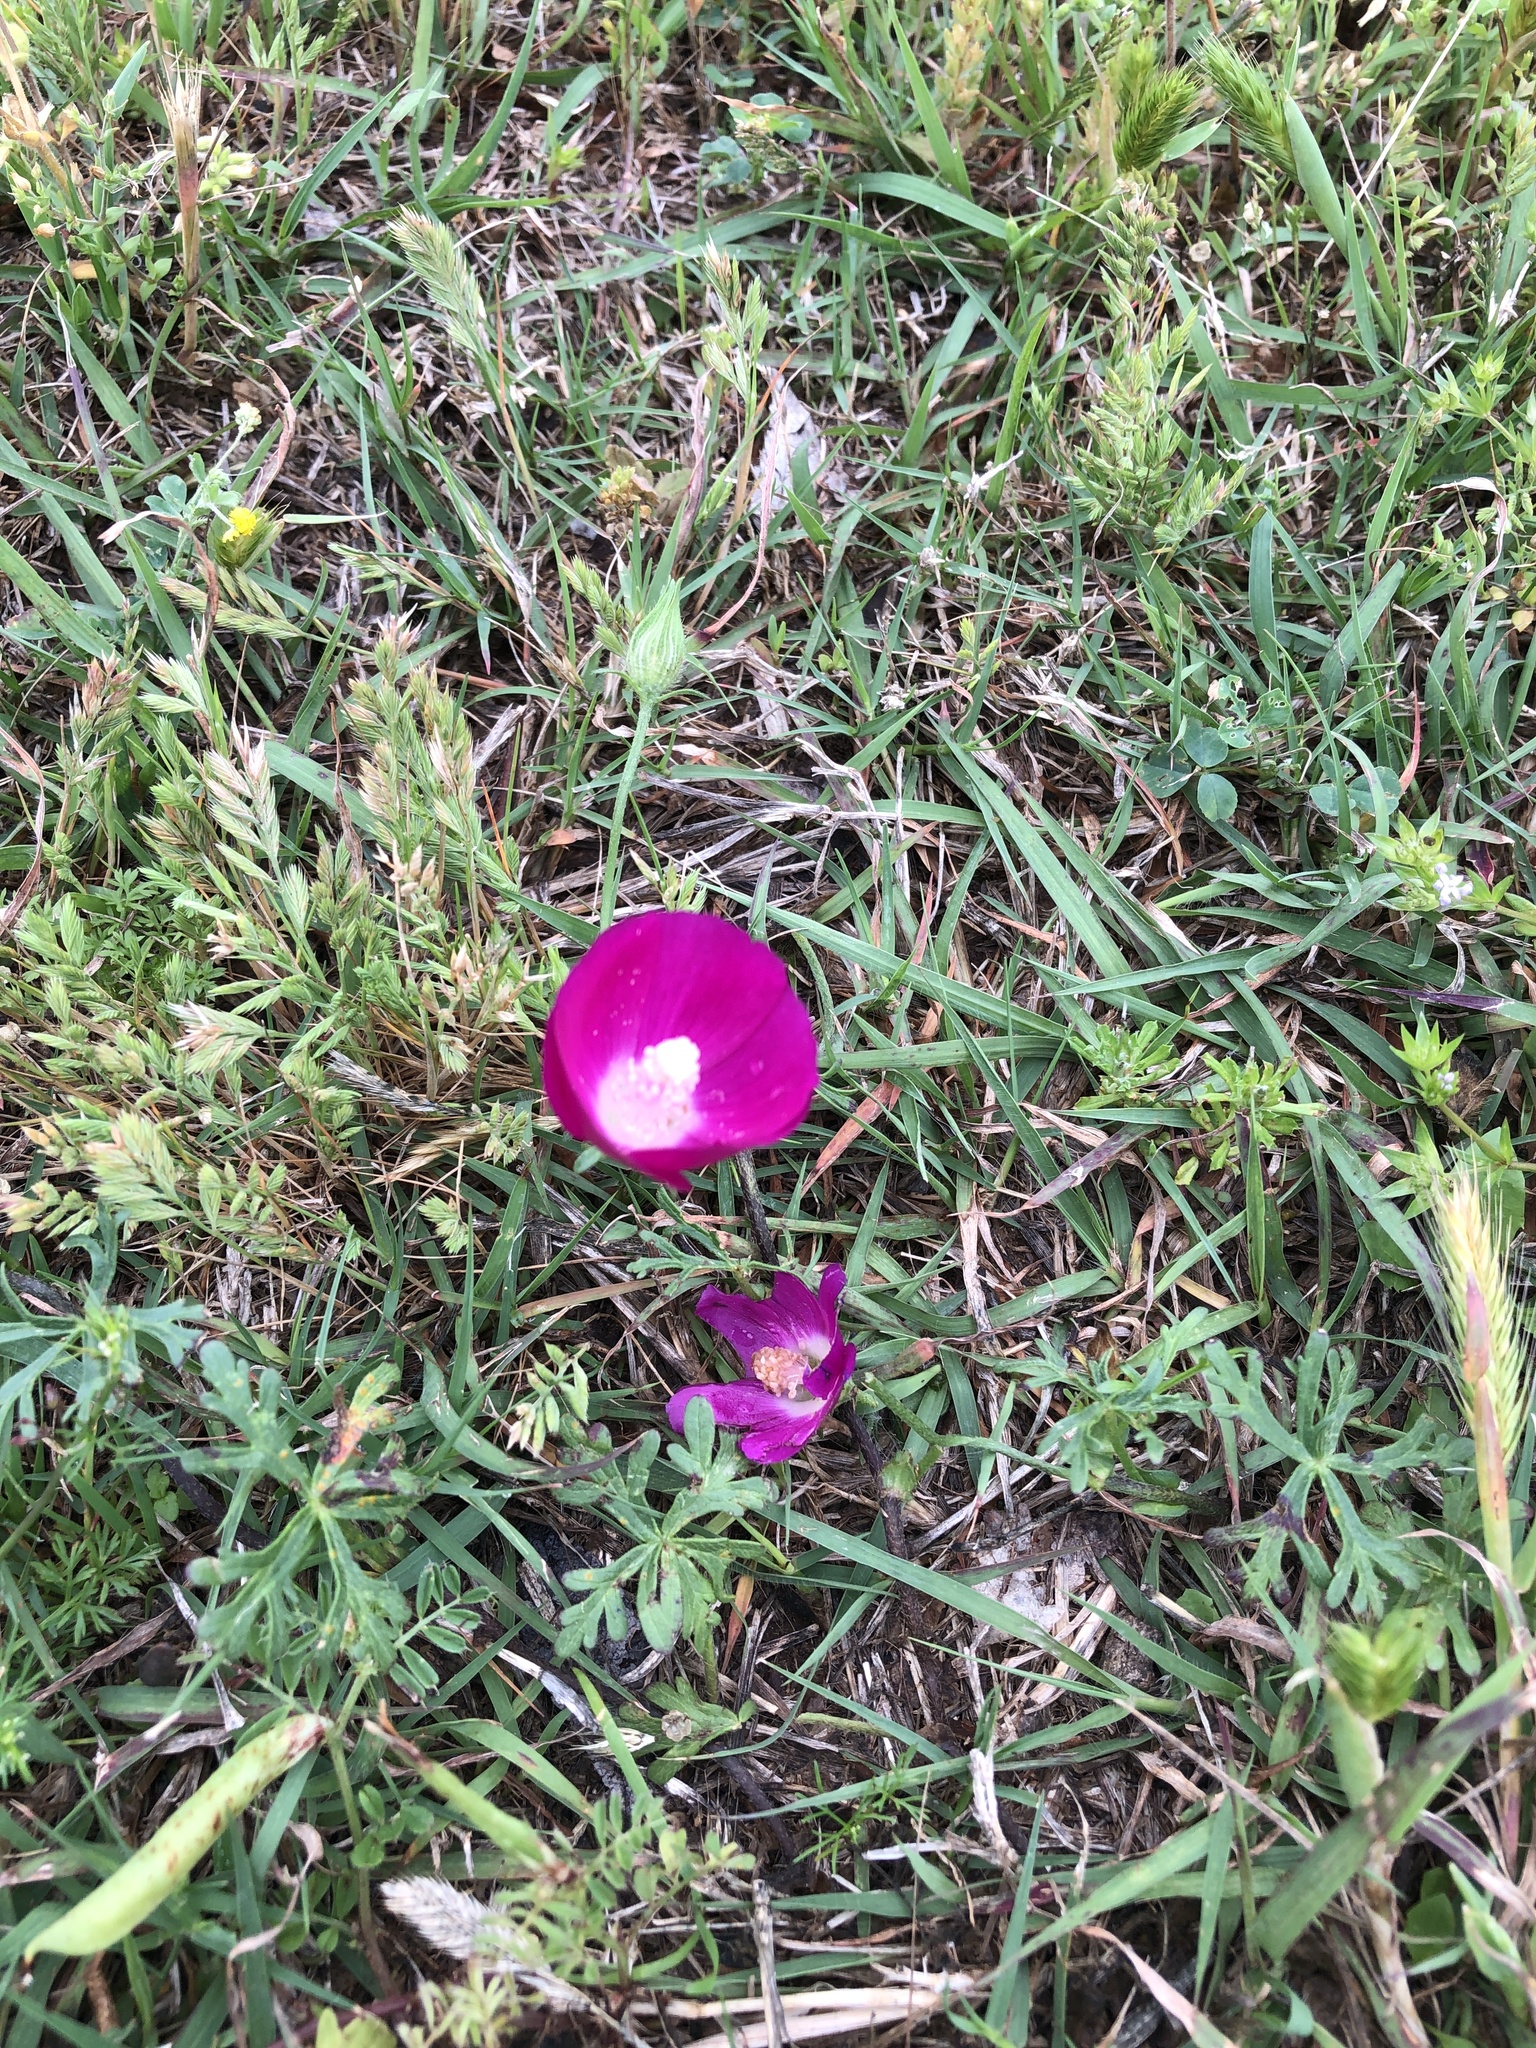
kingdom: Plantae
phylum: Tracheophyta
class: Magnoliopsida
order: Malvales
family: Malvaceae
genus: Callirhoe
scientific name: Callirhoe involucrata
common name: Purple poppy-mallow
